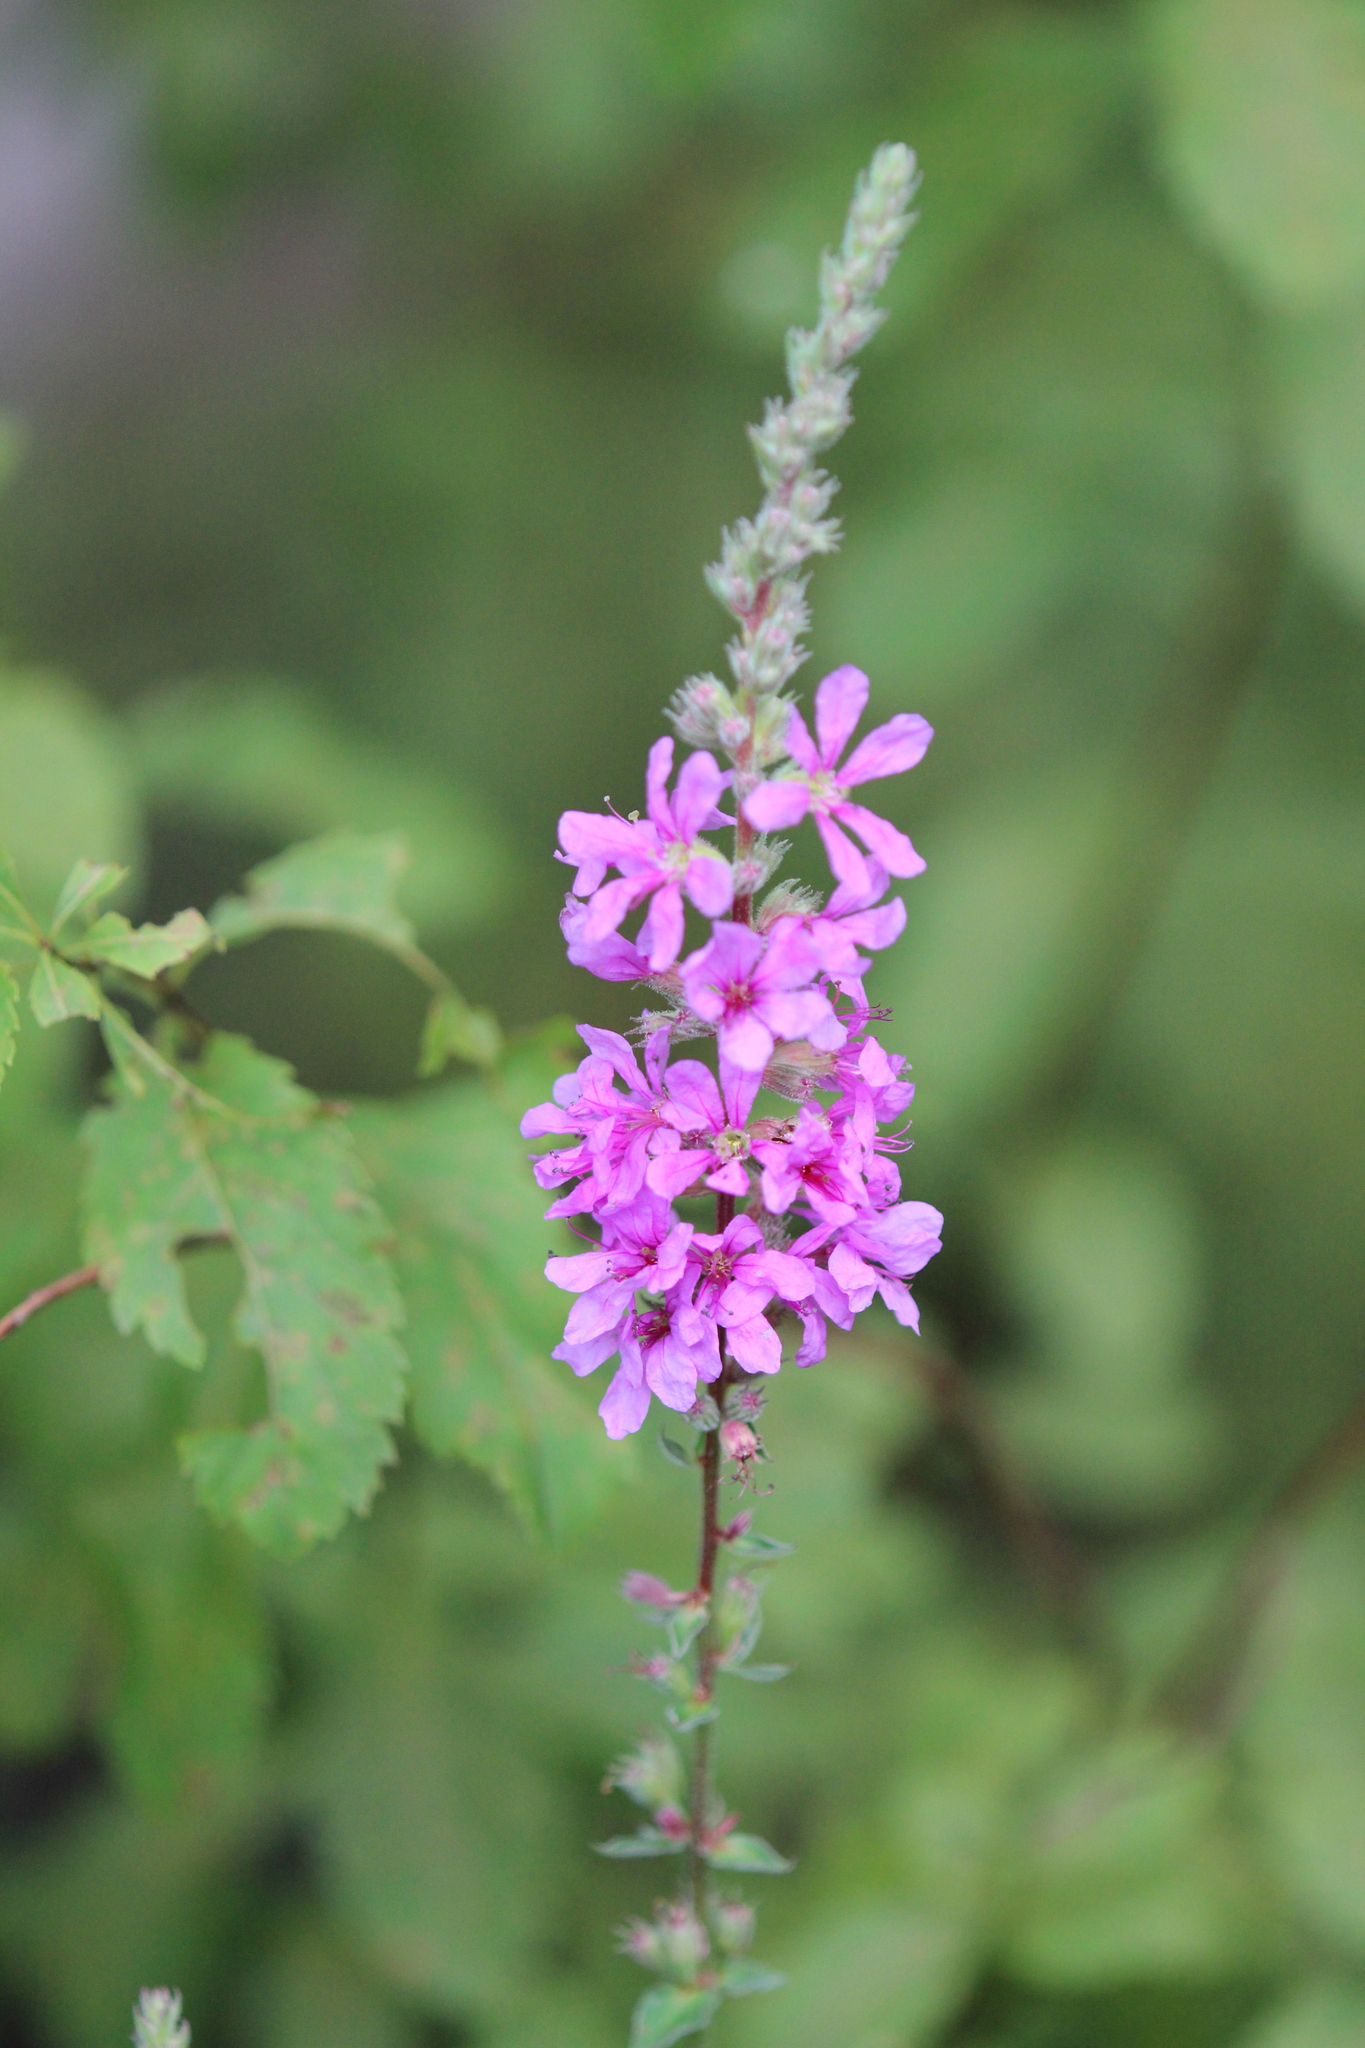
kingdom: Plantae
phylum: Tracheophyta
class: Magnoliopsida
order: Myrtales
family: Lythraceae
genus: Lythrum
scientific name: Lythrum salicaria
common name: Purple loosestrife
